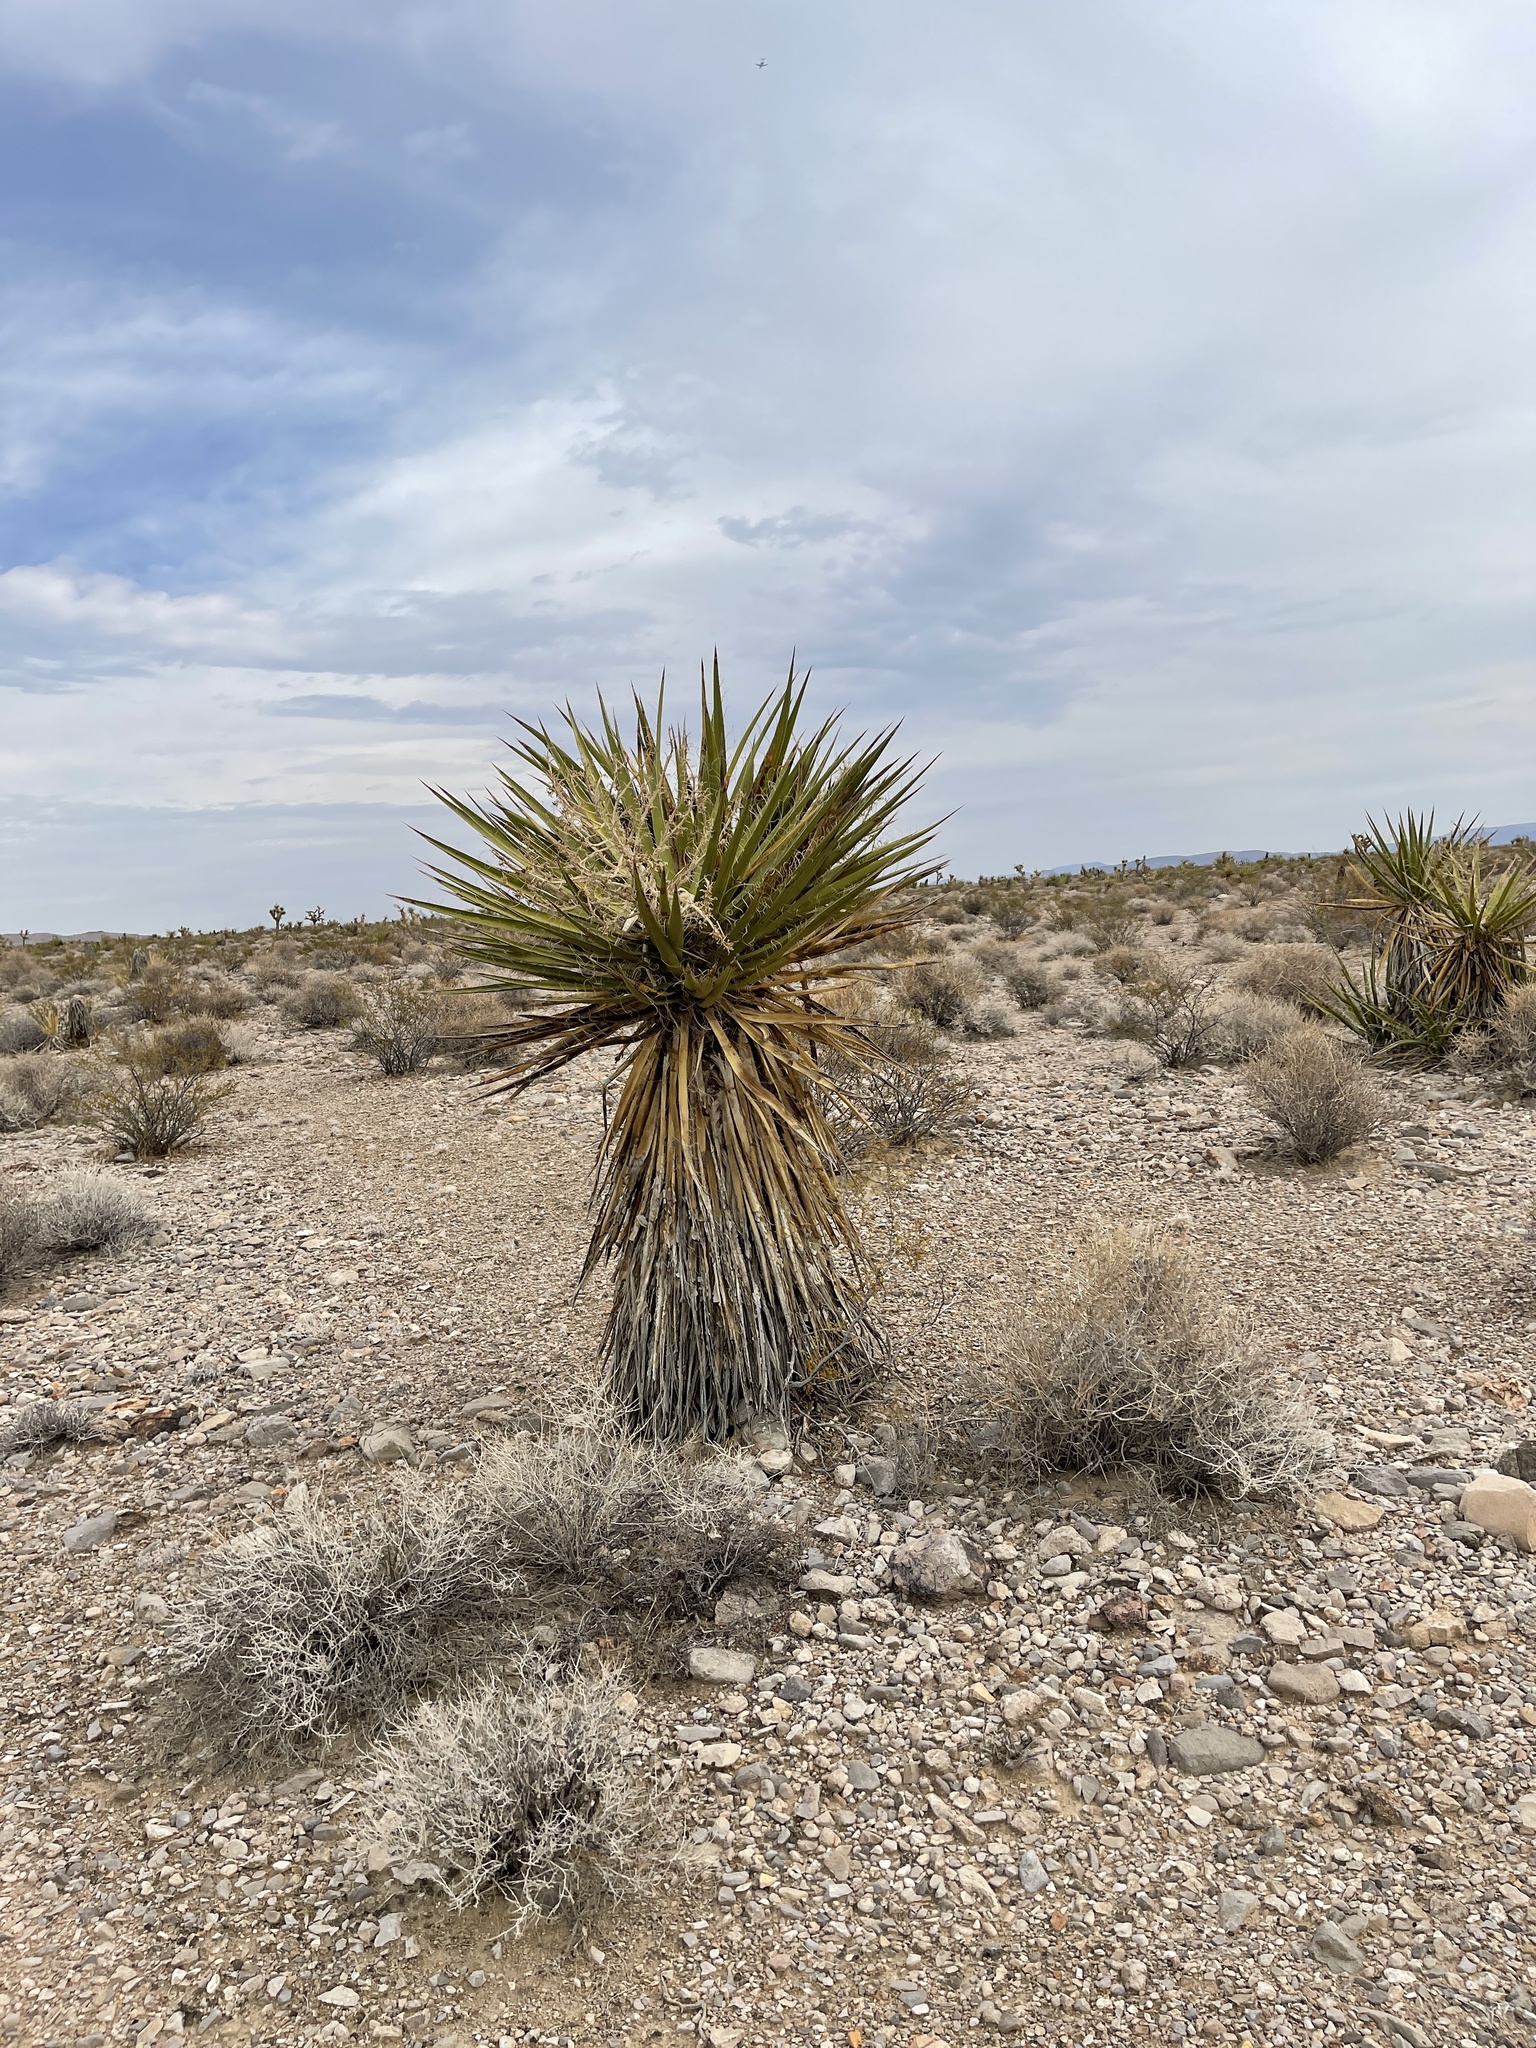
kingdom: Plantae
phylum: Tracheophyta
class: Liliopsida
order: Asparagales
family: Asparagaceae
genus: Yucca
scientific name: Yucca schidigera
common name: Mojave yucca
